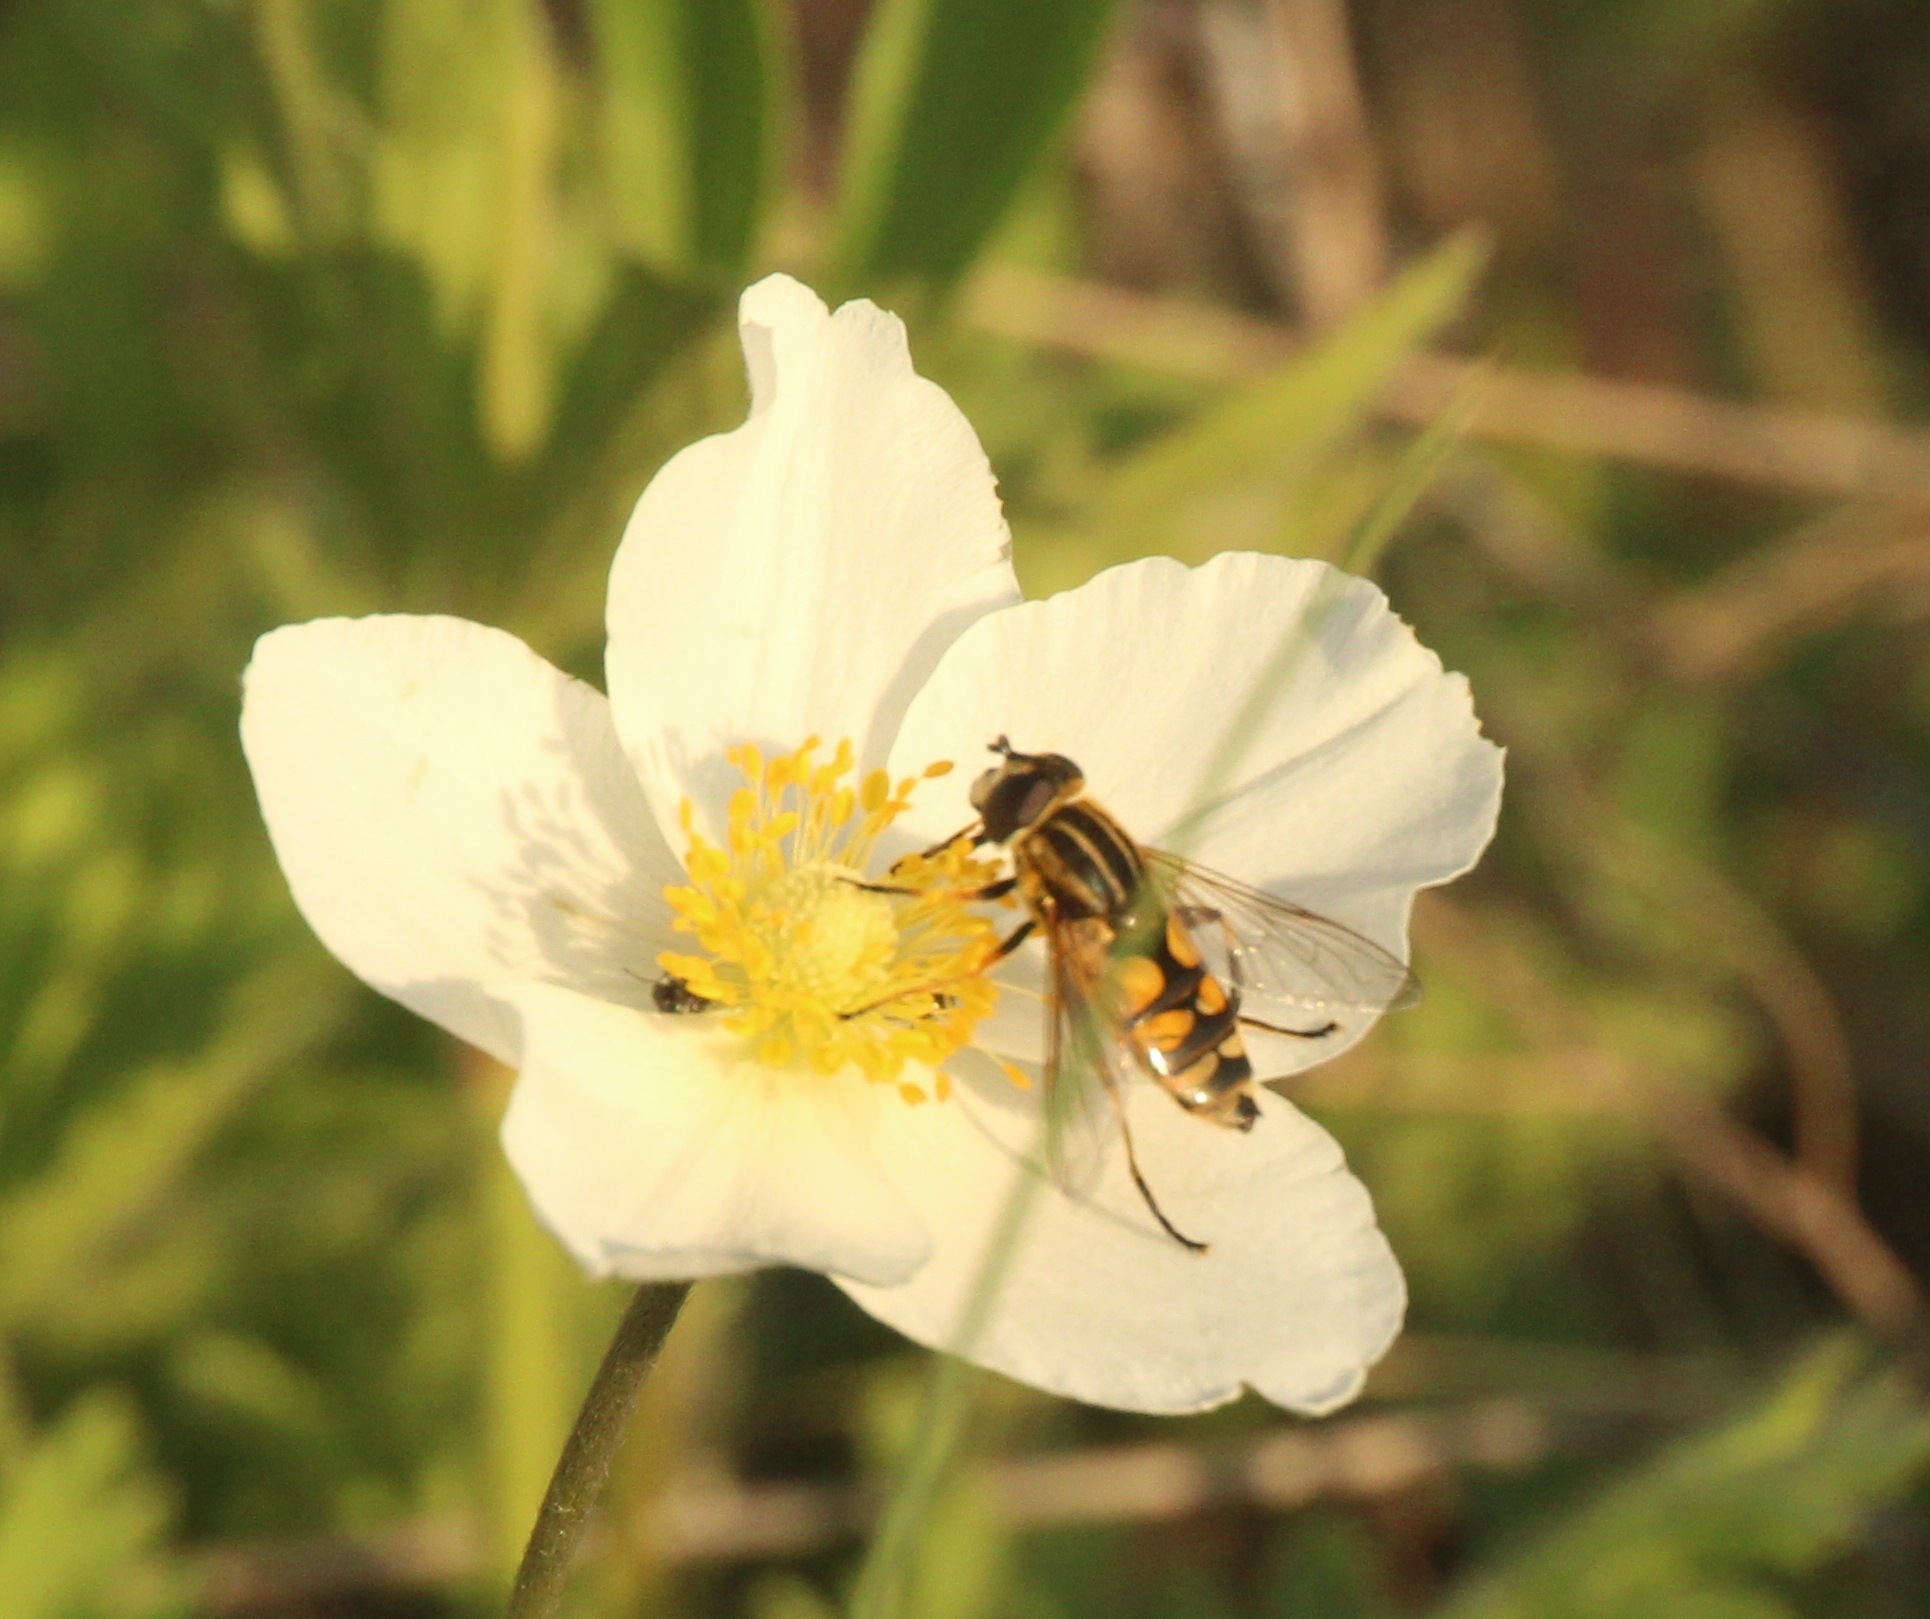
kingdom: Animalia
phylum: Arthropoda
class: Insecta
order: Diptera
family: Syrphidae
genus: Helophilus
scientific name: Helophilus hybridus
